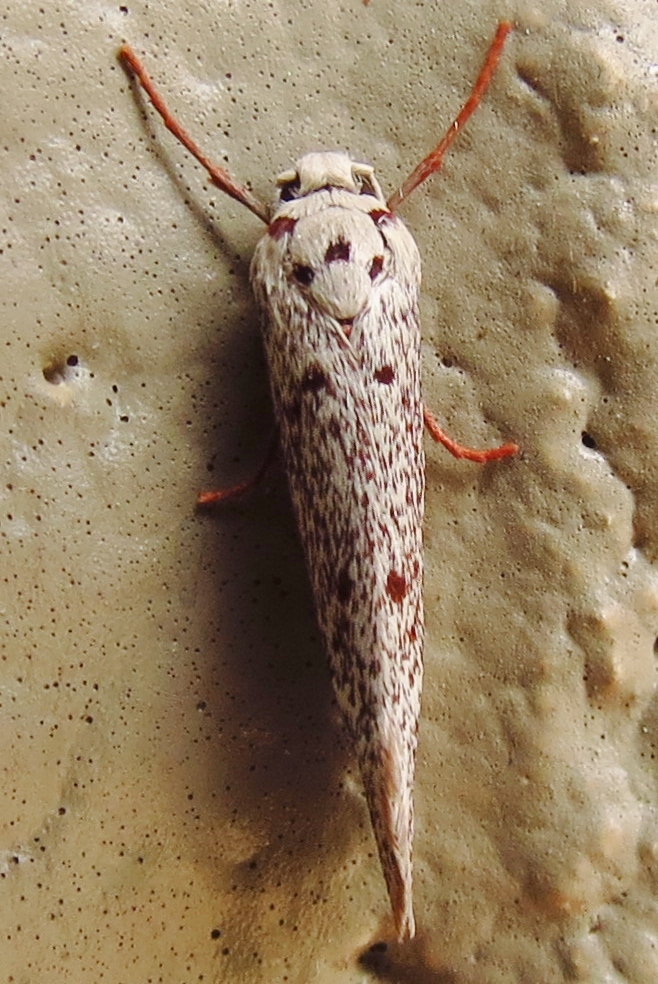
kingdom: Animalia
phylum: Arthropoda
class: Insecta
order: Lepidoptera
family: Lacturidae
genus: Lactura
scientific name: Lactura
